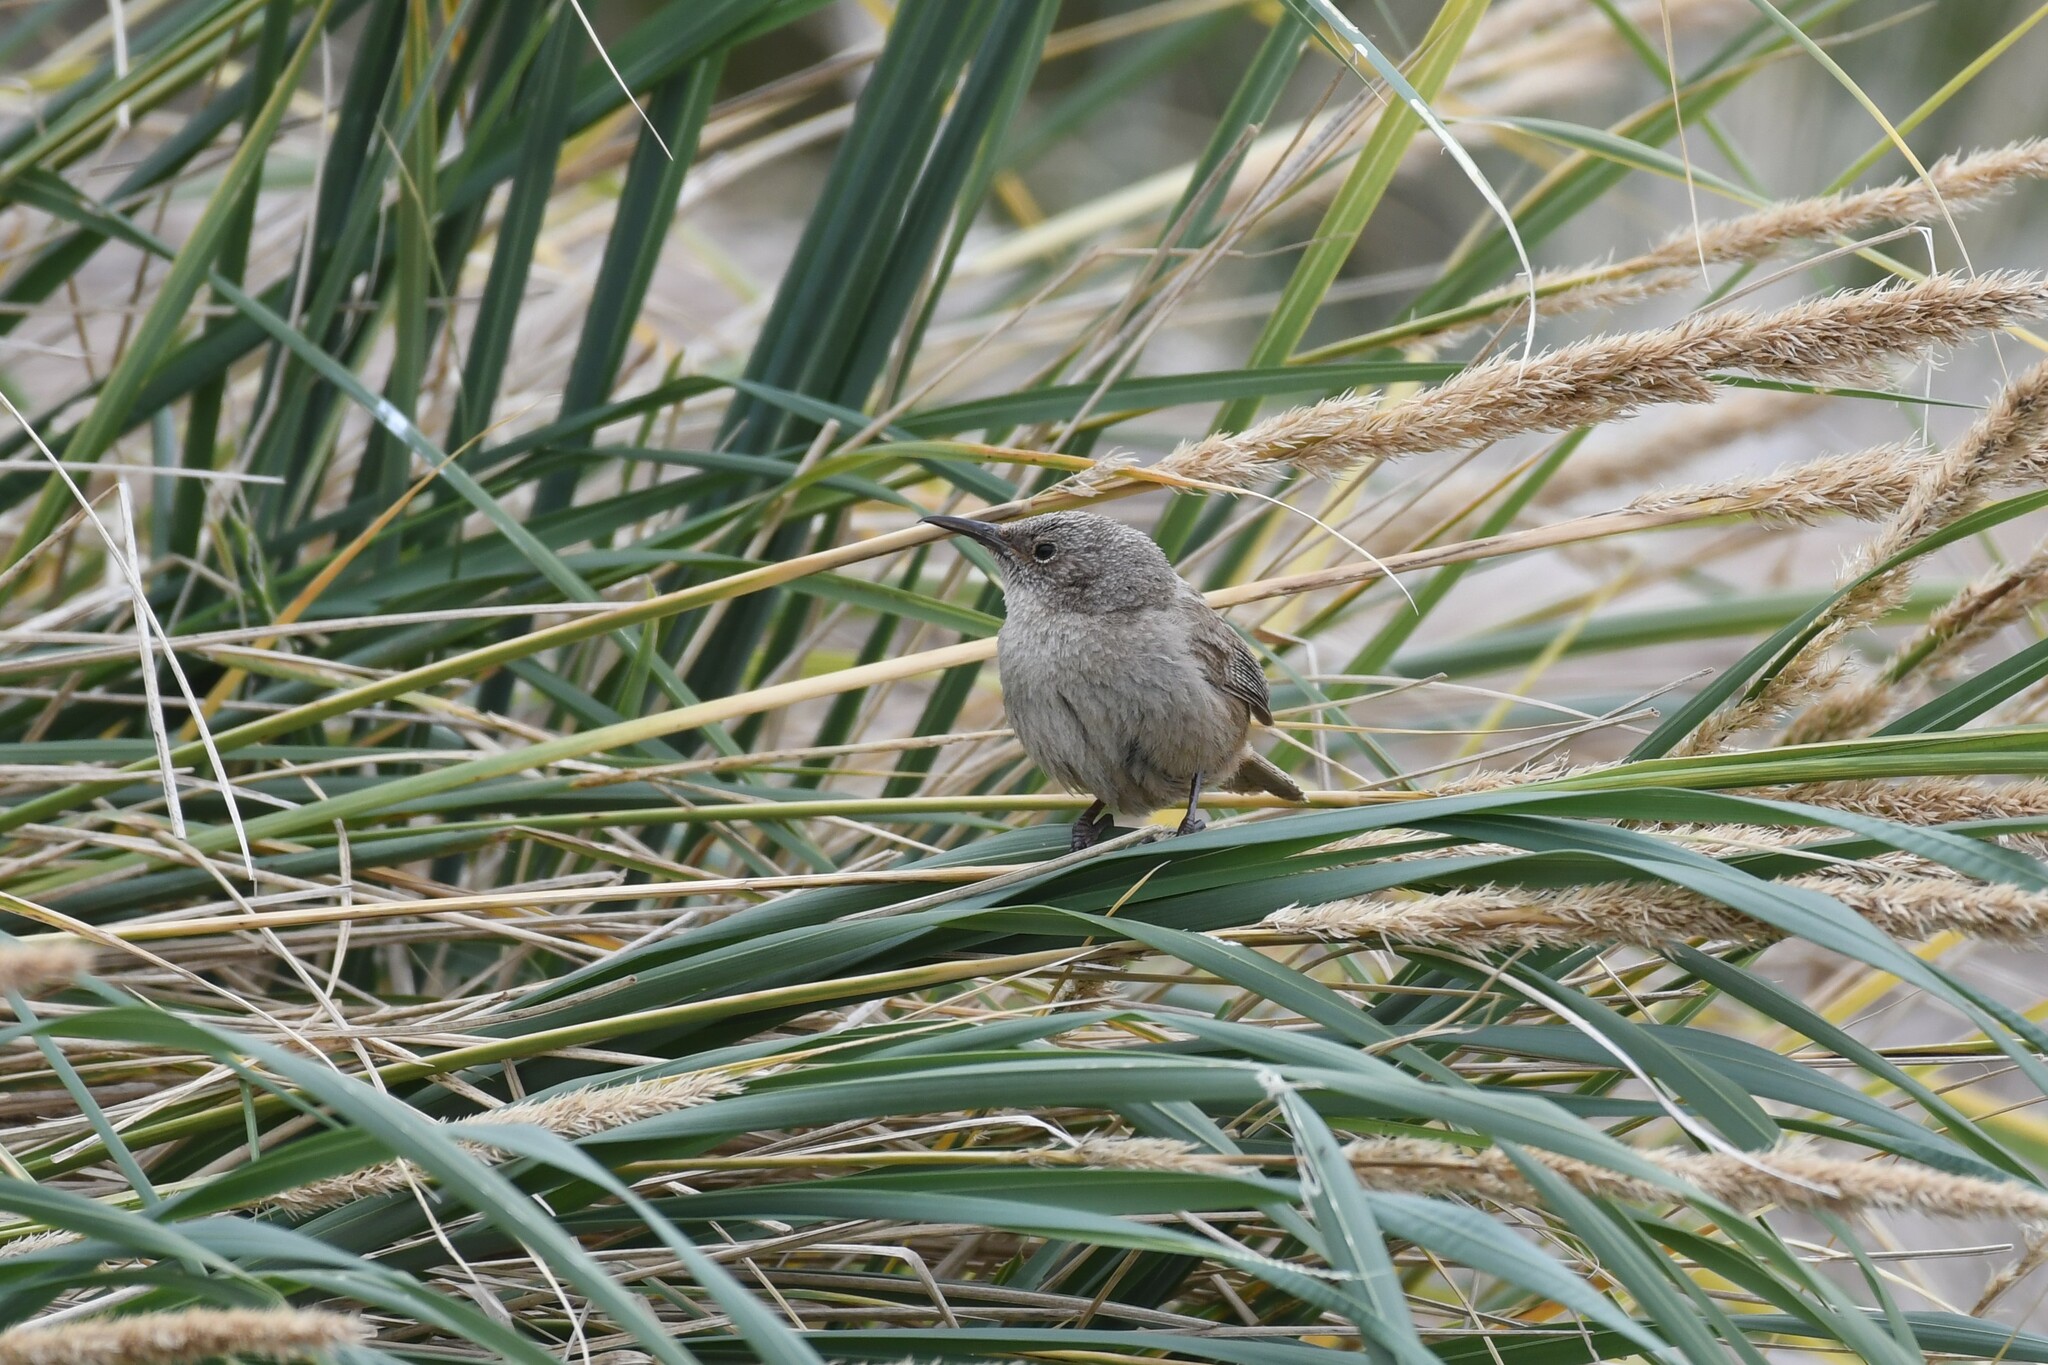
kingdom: Animalia
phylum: Chordata
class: Aves
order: Passeriformes
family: Troglodytidae
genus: Troglodytes
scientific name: Troglodytes cobbi
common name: Cobb's wren
